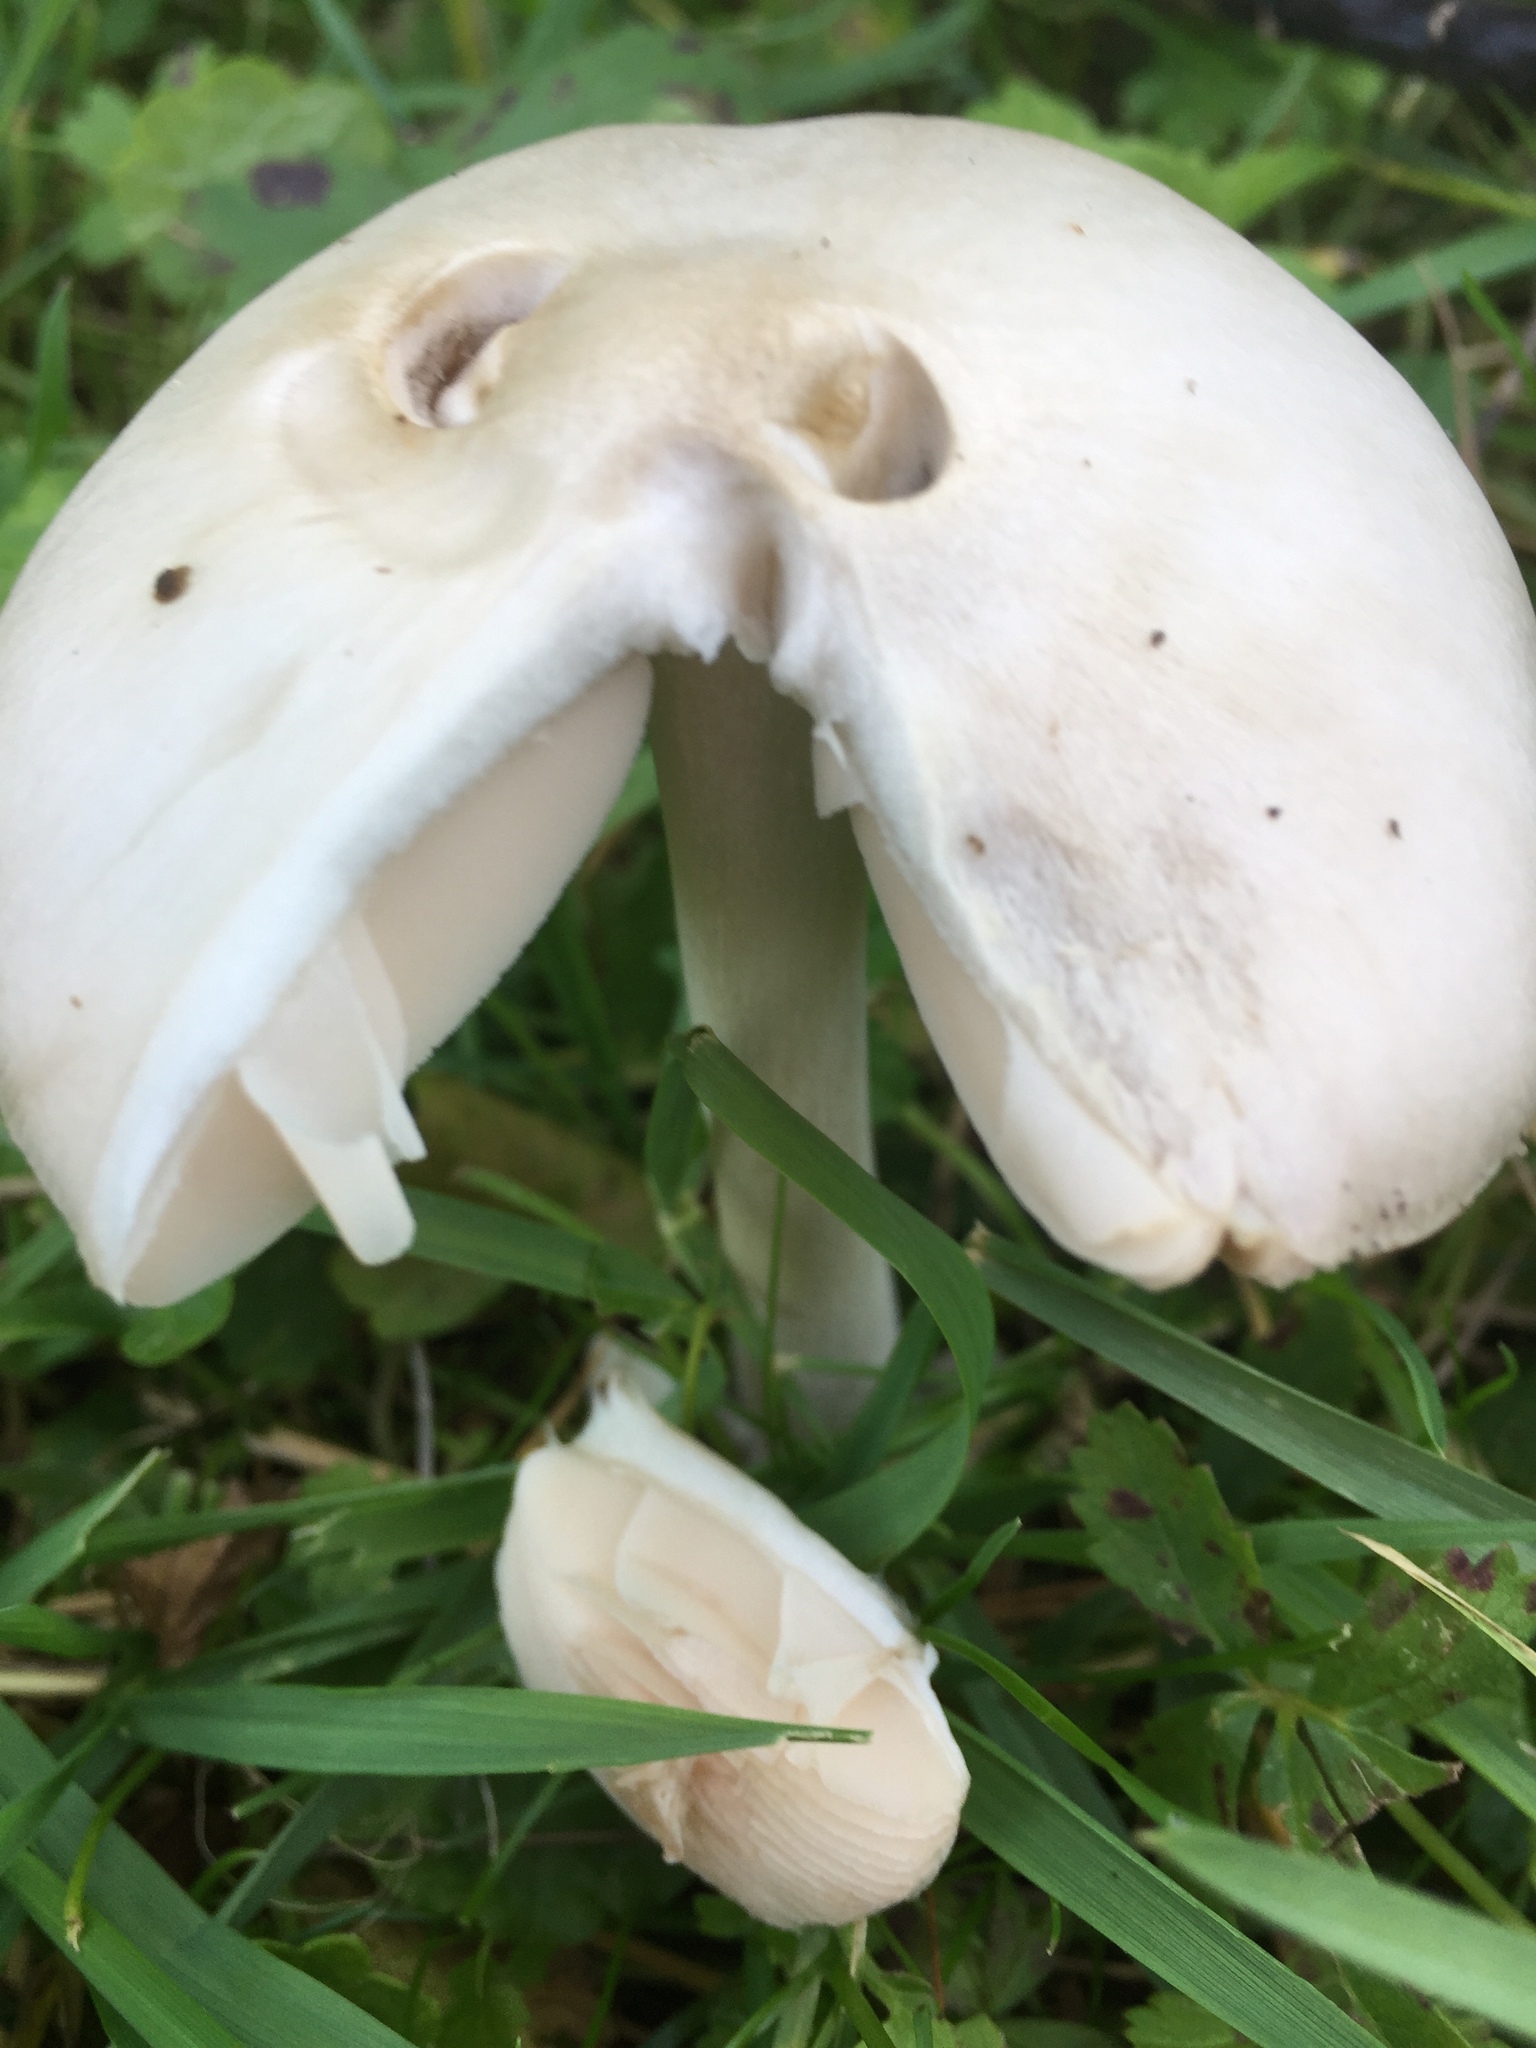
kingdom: Fungi
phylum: Basidiomycota
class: Agaricomycetes
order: Agaricales
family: Pluteaceae
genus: Volvopluteus
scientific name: Volvopluteus gloiocephalus
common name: Stubble rosegill
